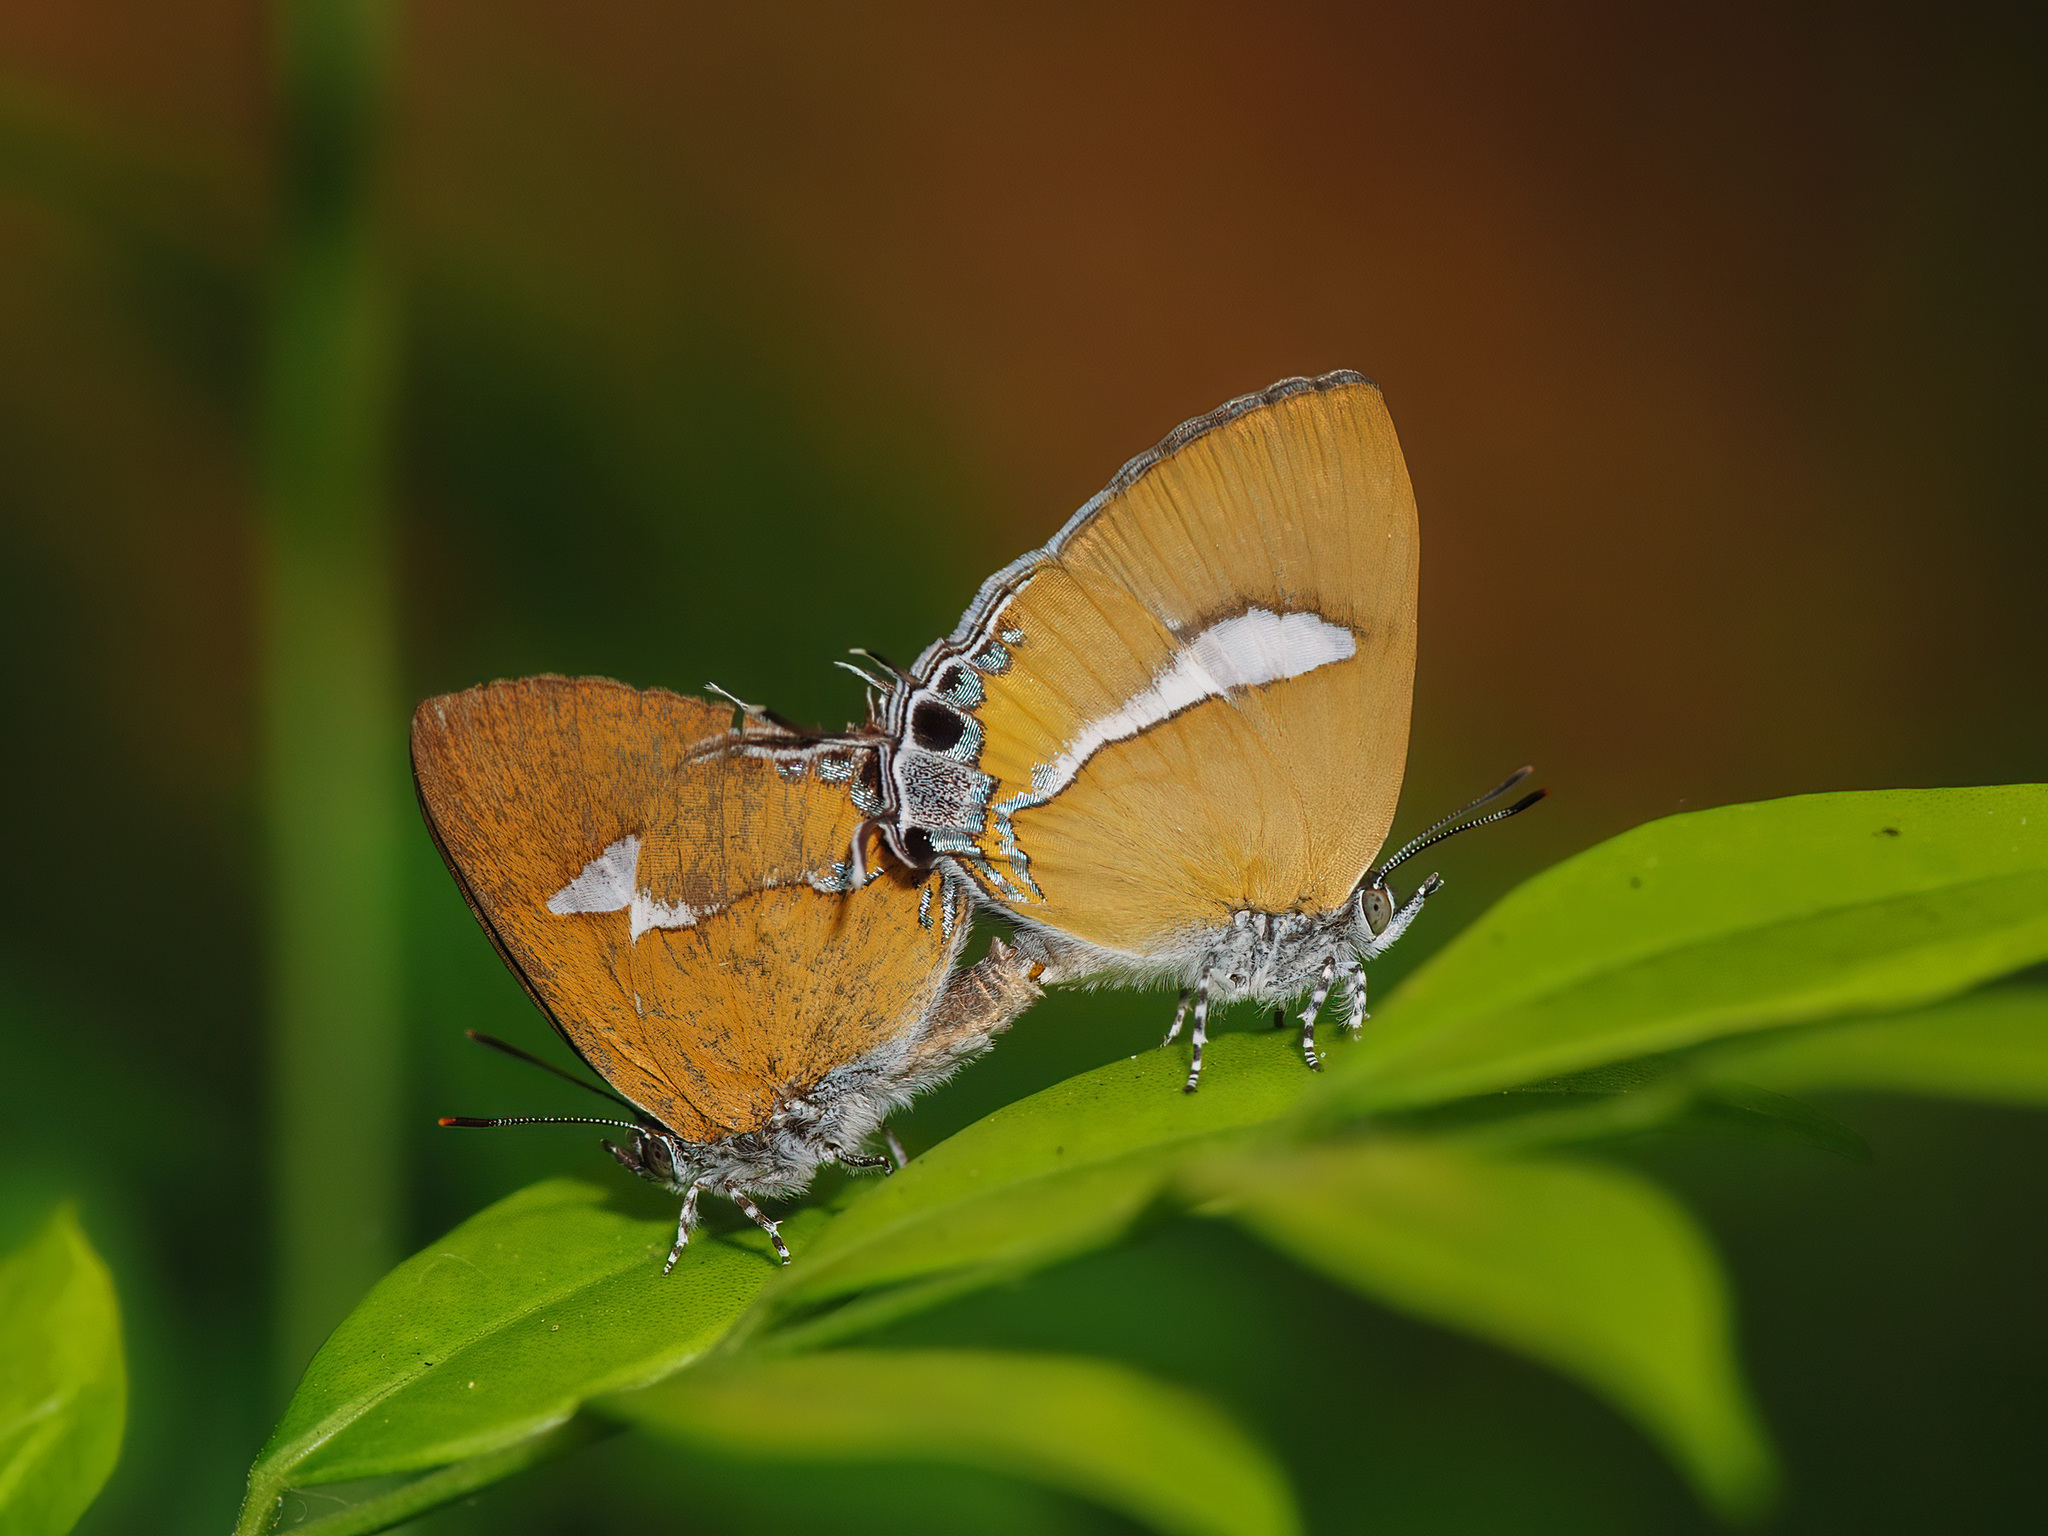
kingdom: Animalia
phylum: Arthropoda
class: Insecta
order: Lepidoptera
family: Lycaenidae
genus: Horaga
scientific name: Horaga syrinx
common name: Ambon onyx
